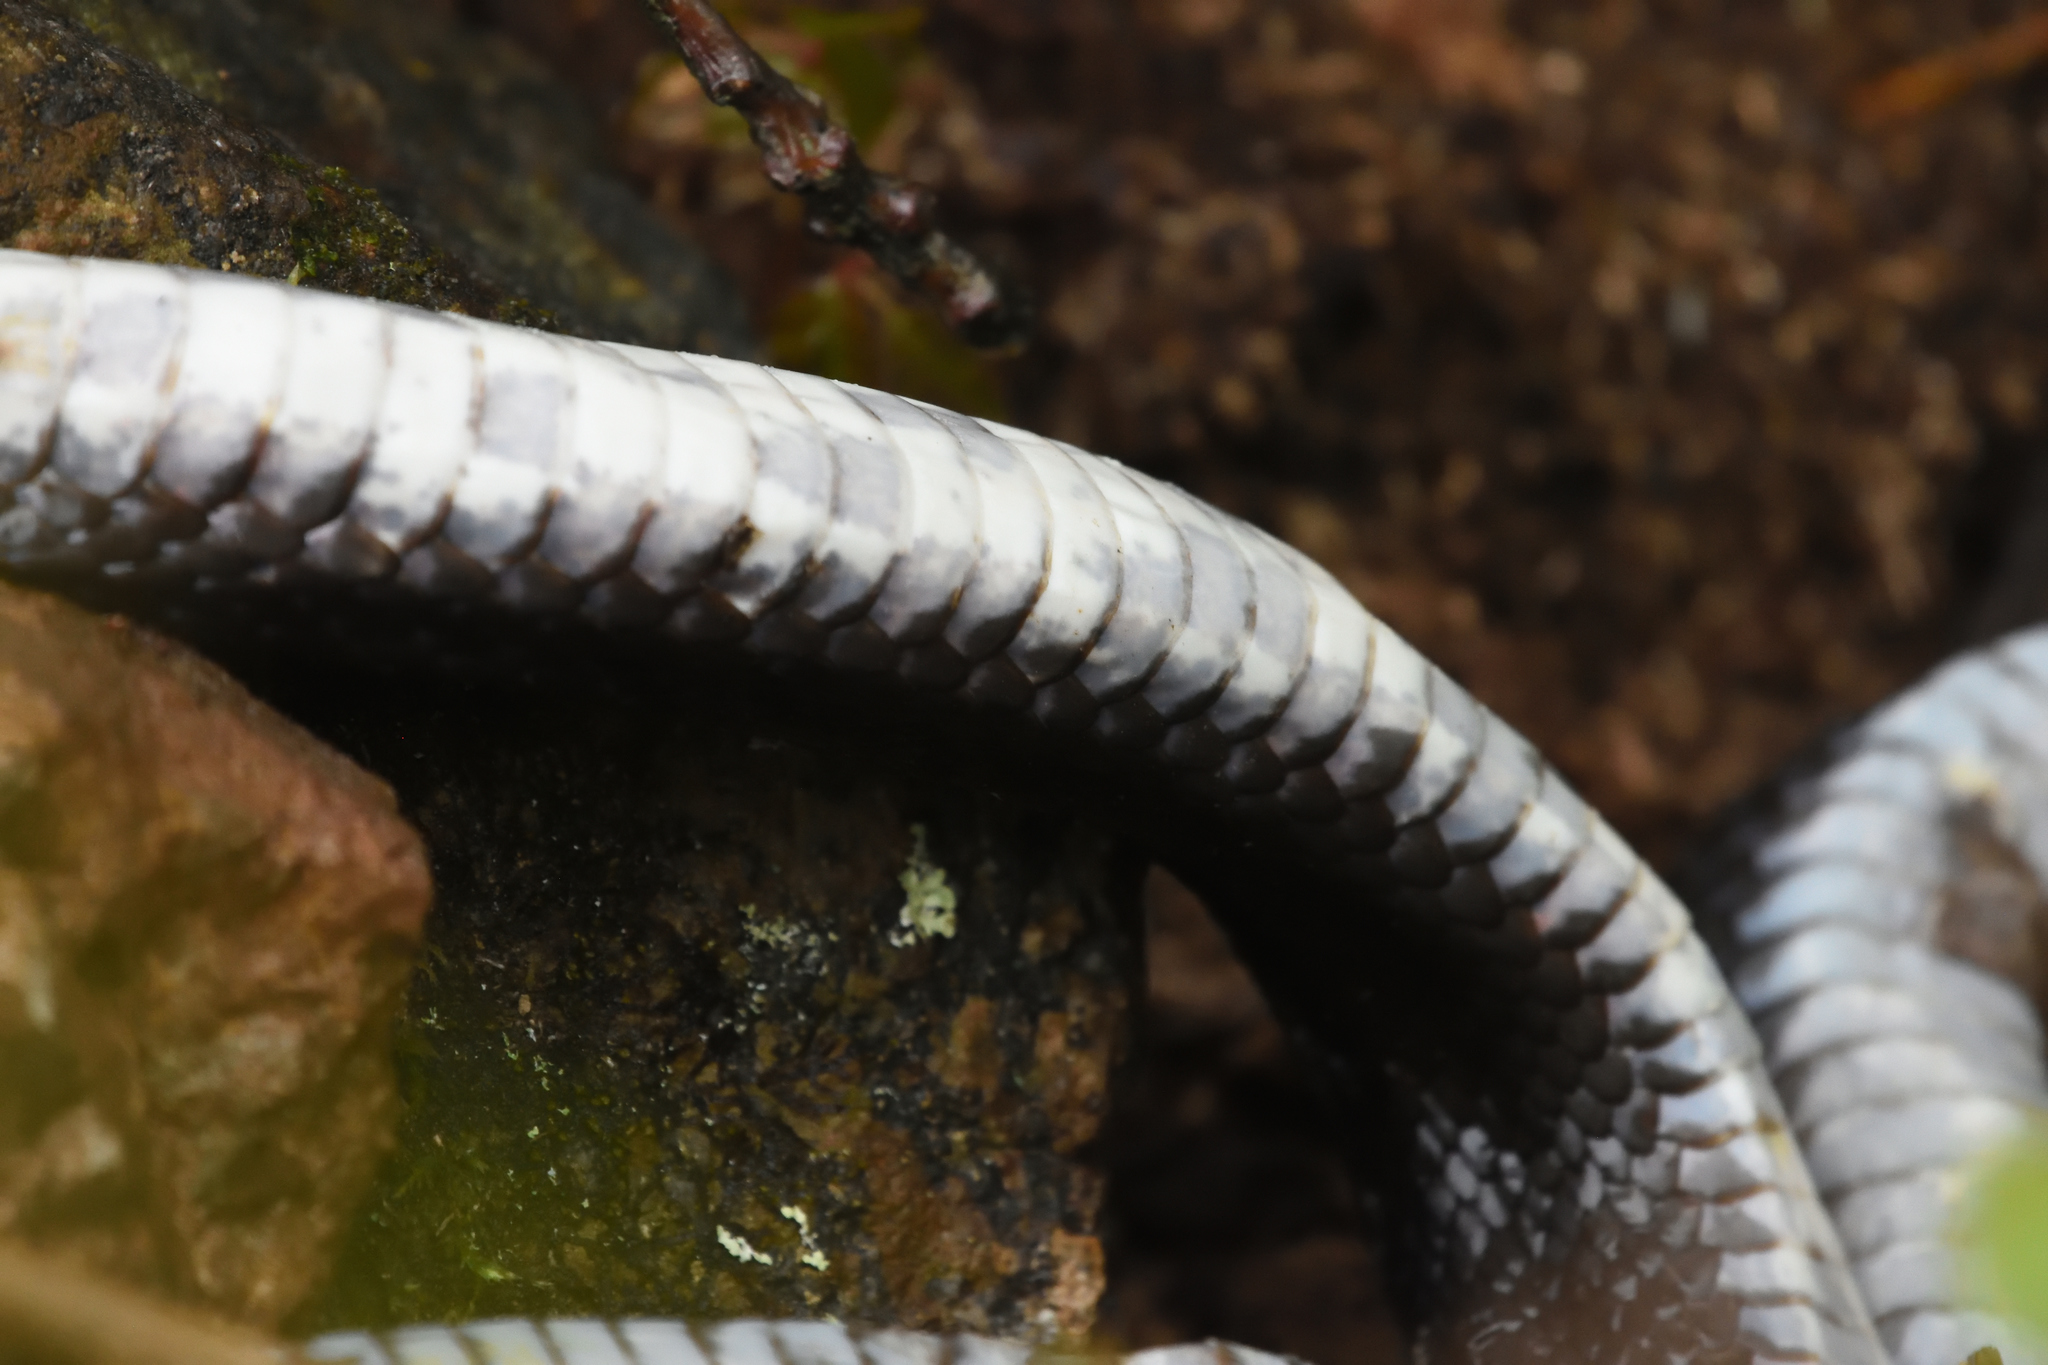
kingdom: Animalia
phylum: Chordata
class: Squamata
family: Colubridae
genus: Pantherophis
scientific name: Pantherophis alleghaniensis
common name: Eastern rat snake
